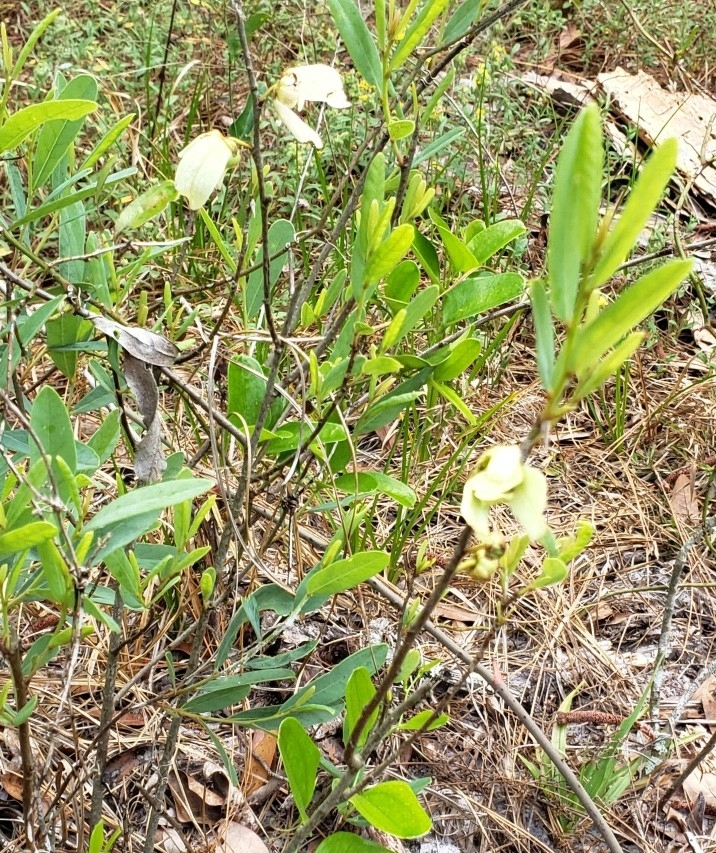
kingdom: Plantae
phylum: Tracheophyta
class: Magnoliopsida
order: Magnoliales
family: Annonaceae
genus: Asimina
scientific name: Asimina reticulata
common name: Flag pawpaw
